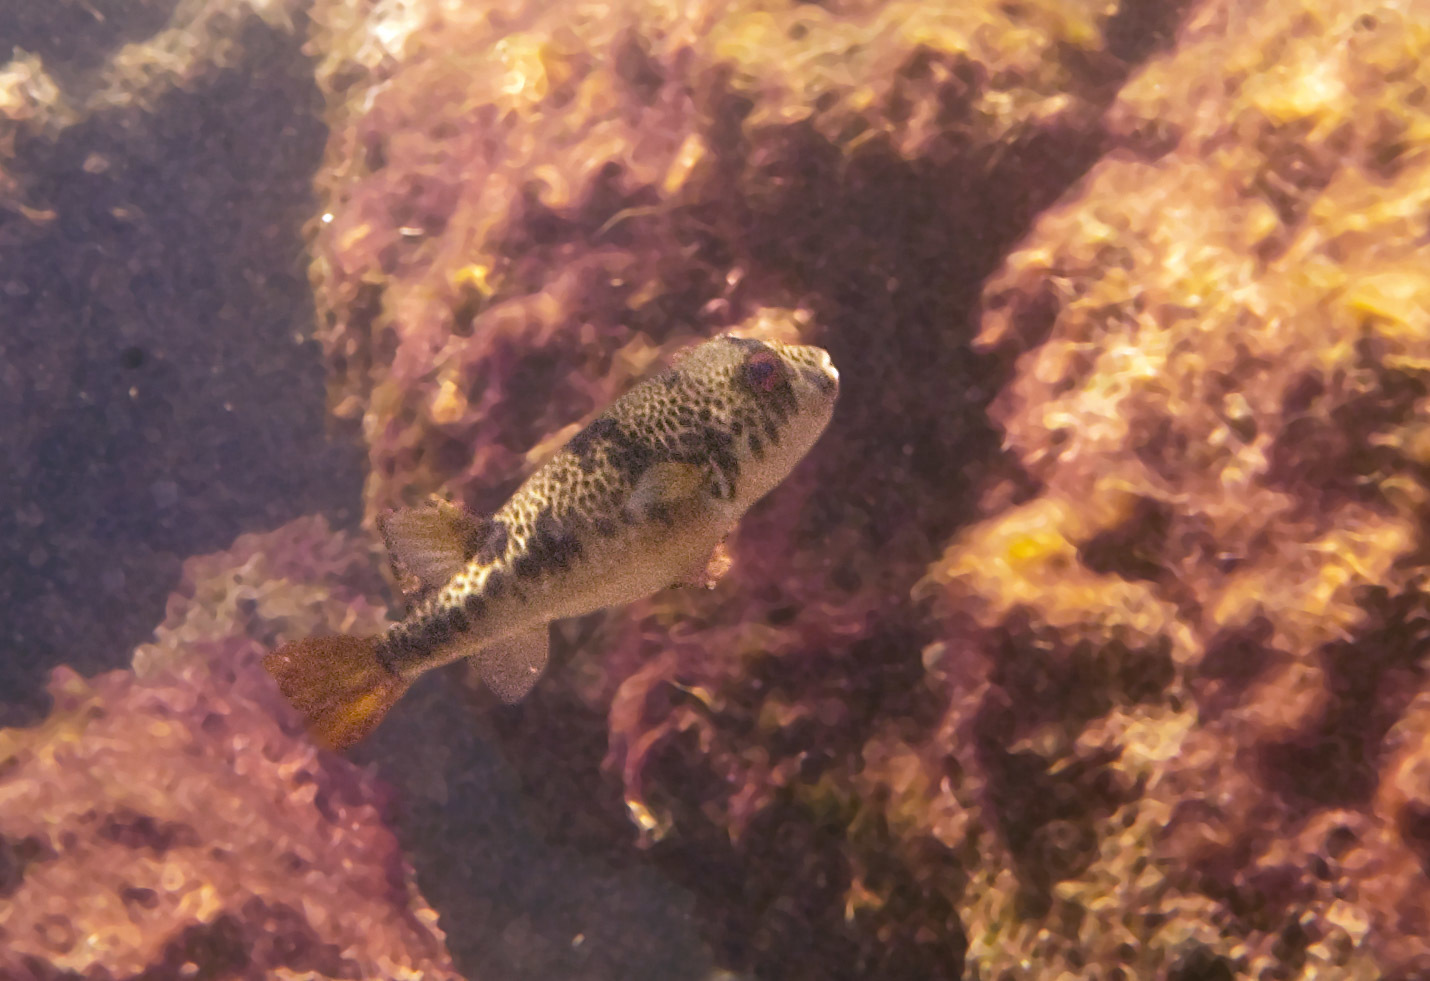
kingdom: Animalia
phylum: Chordata
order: Tetraodontiformes
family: Tetraodontidae
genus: Tetractenos
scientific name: Tetractenos glaber
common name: Smooth toadfish
